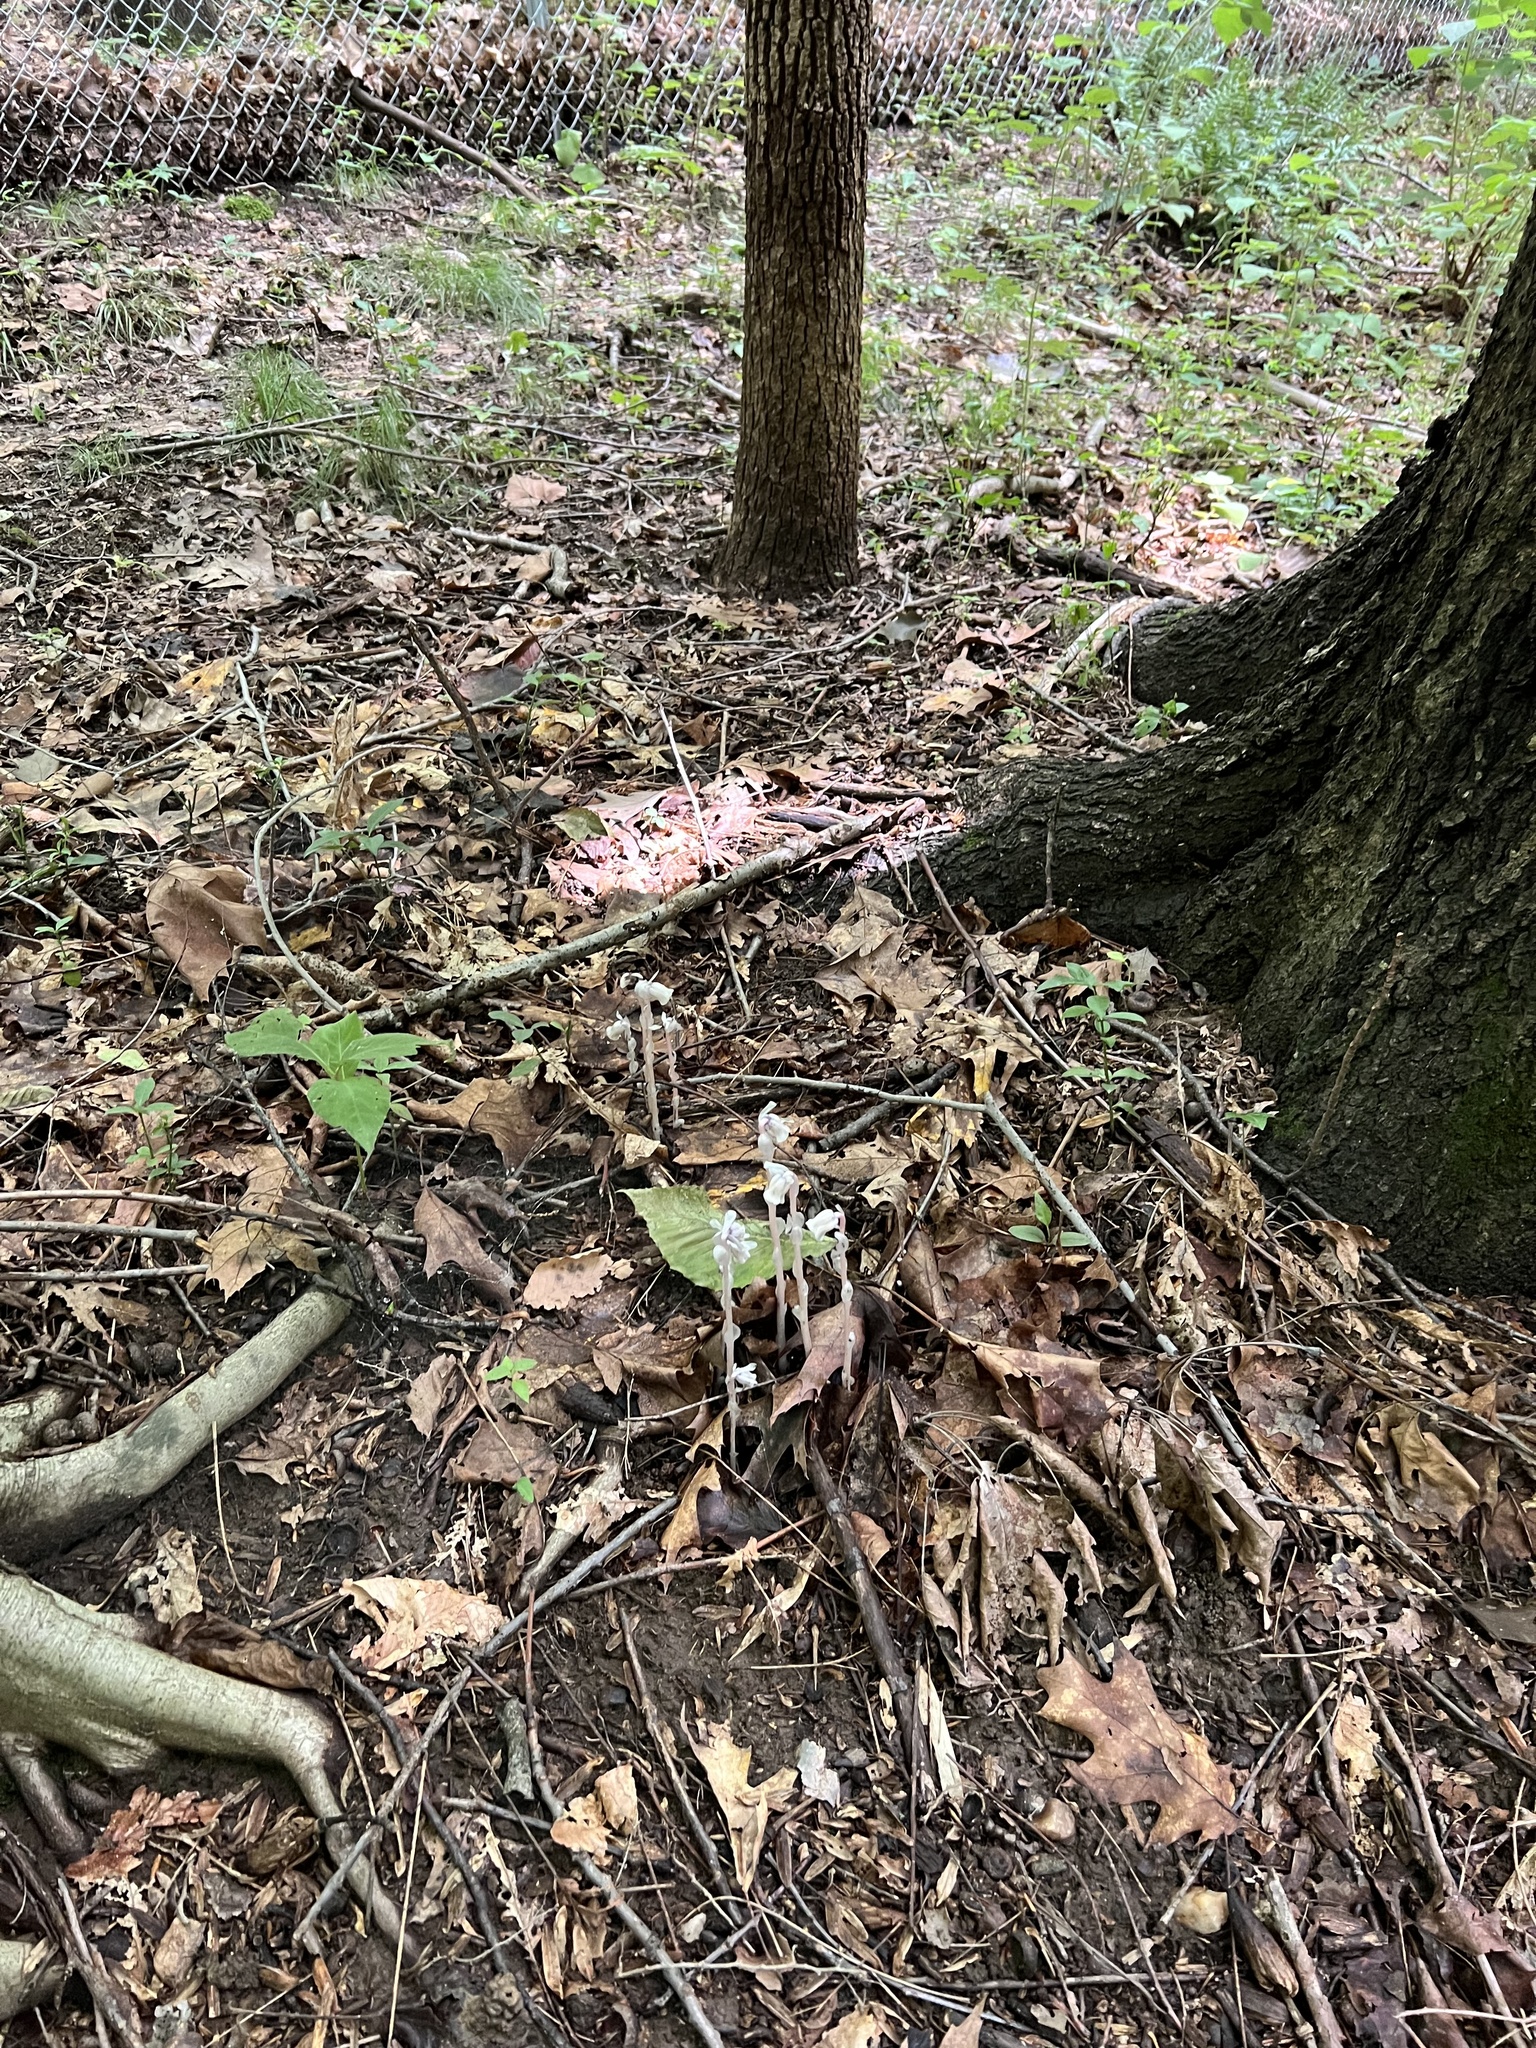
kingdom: Plantae
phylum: Tracheophyta
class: Magnoliopsida
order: Ericales
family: Ericaceae
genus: Monotropa
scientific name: Monotropa uniflora
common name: Convulsion root
